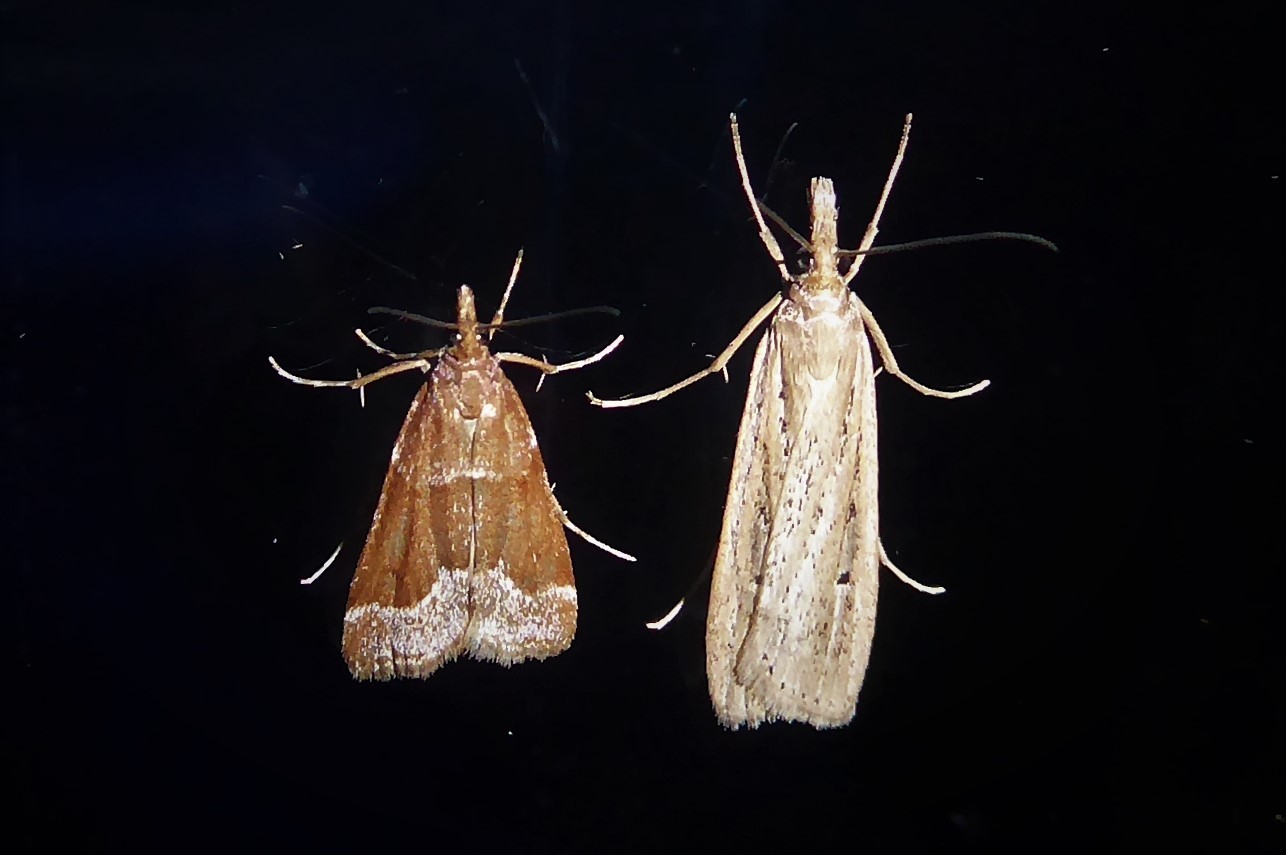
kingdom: Animalia
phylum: Arthropoda
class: Insecta
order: Lepidoptera
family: Crambidae
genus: Eudonia
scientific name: Eudonia sabulosella
